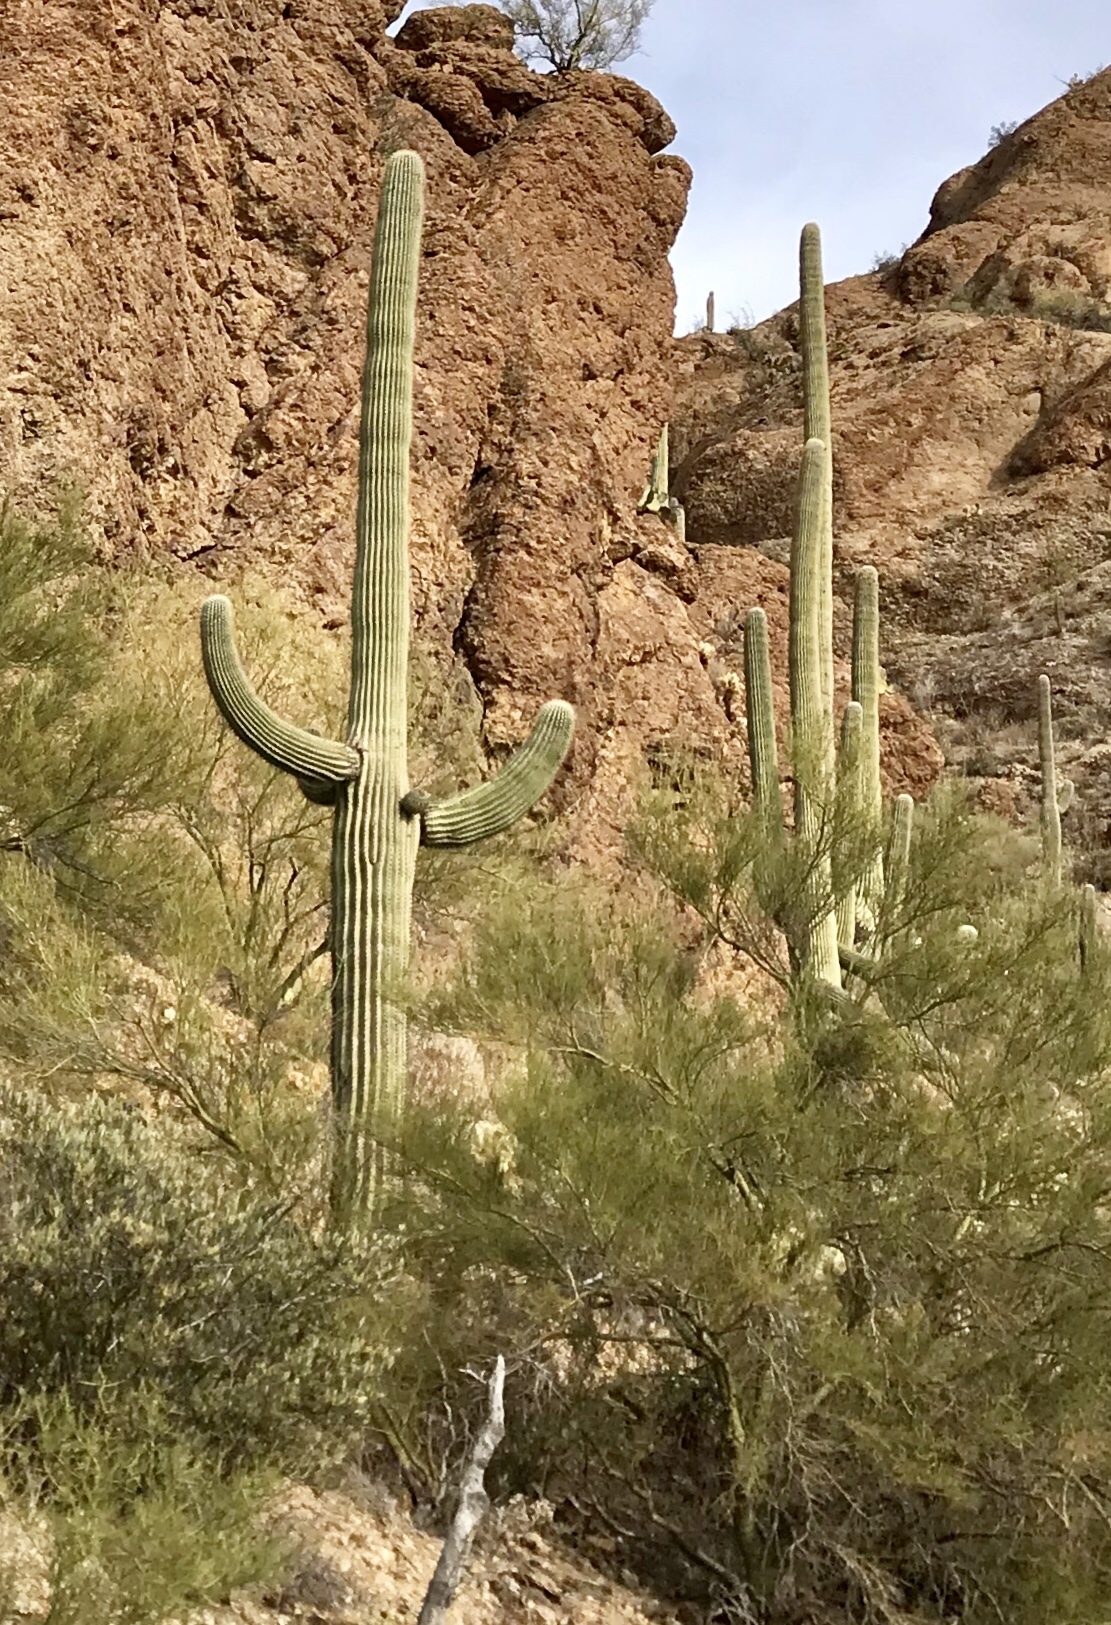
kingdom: Plantae
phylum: Tracheophyta
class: Magnoliopsida
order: Caryophyllales
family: Cactaceae
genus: Carnegiea
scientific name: Carnegiea gigantea
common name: Saguaro
